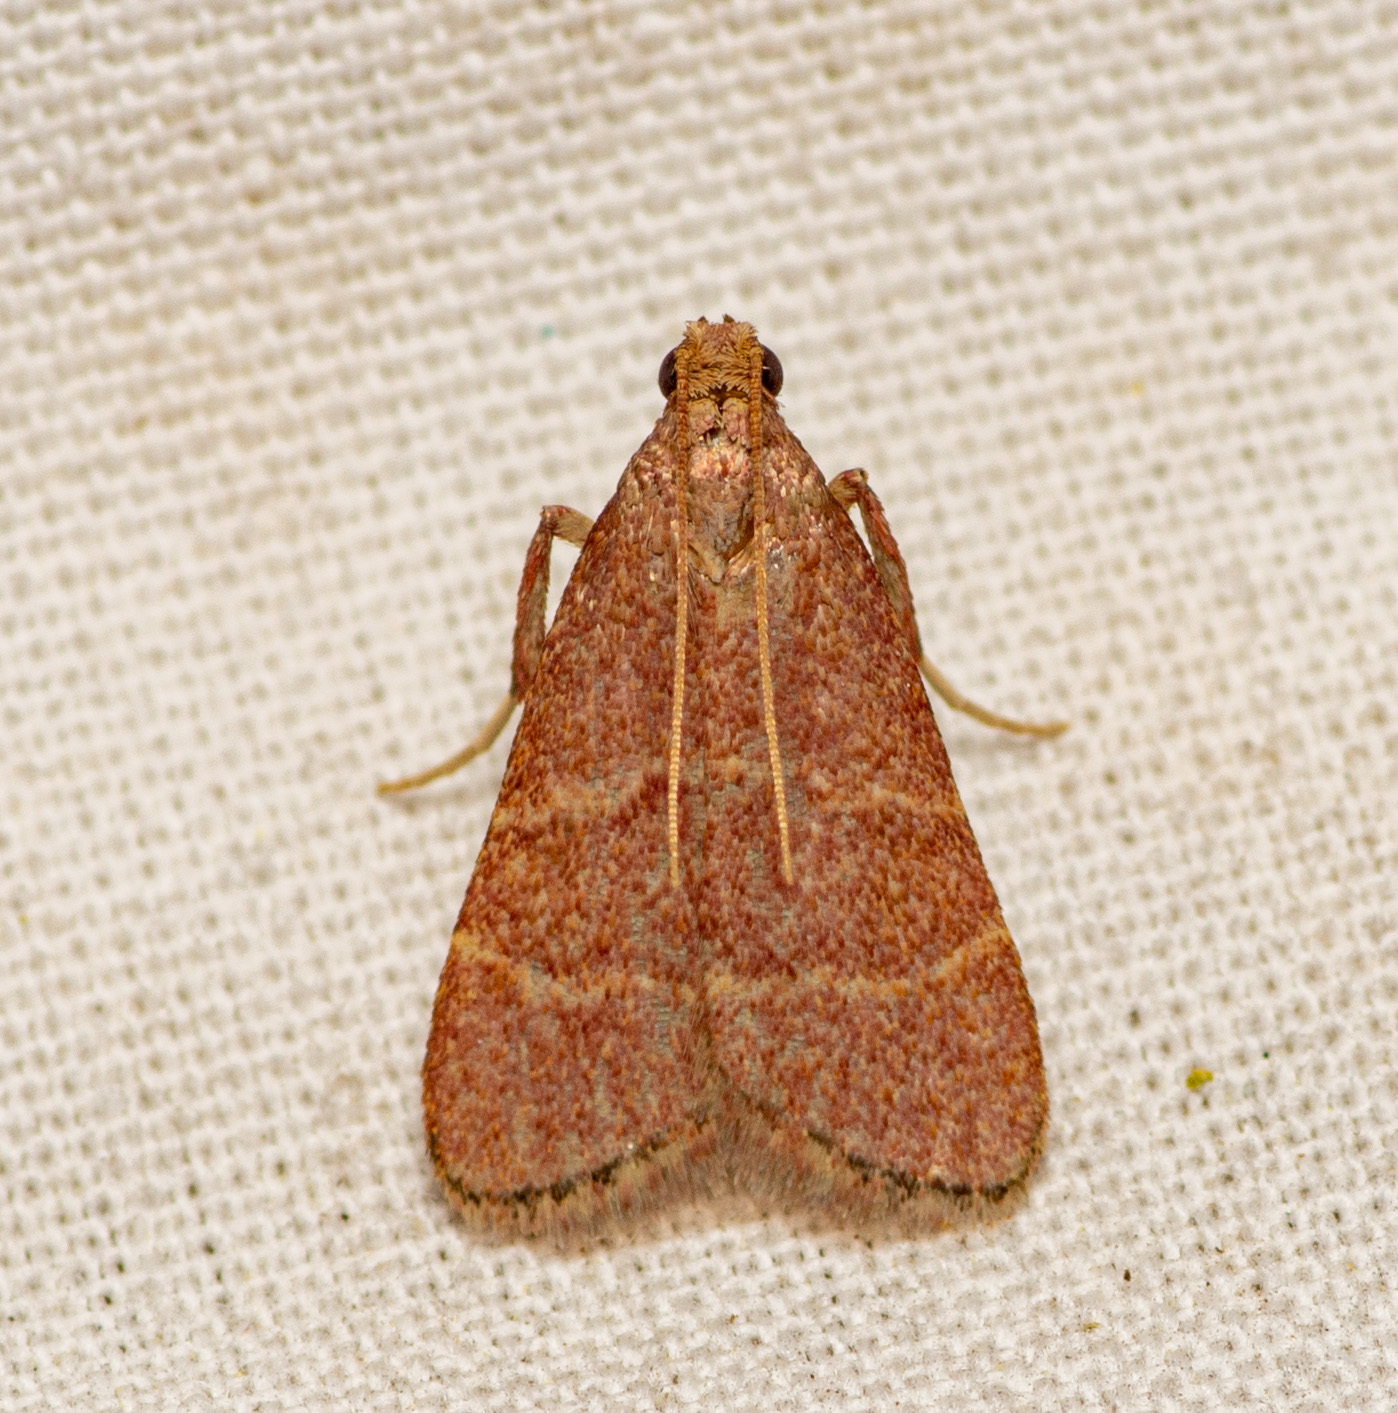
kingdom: Animalia
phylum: Arthropoda
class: Insecta
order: Lepidoptera
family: Pyralidae
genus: Arta
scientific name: Arta epicoenalis
